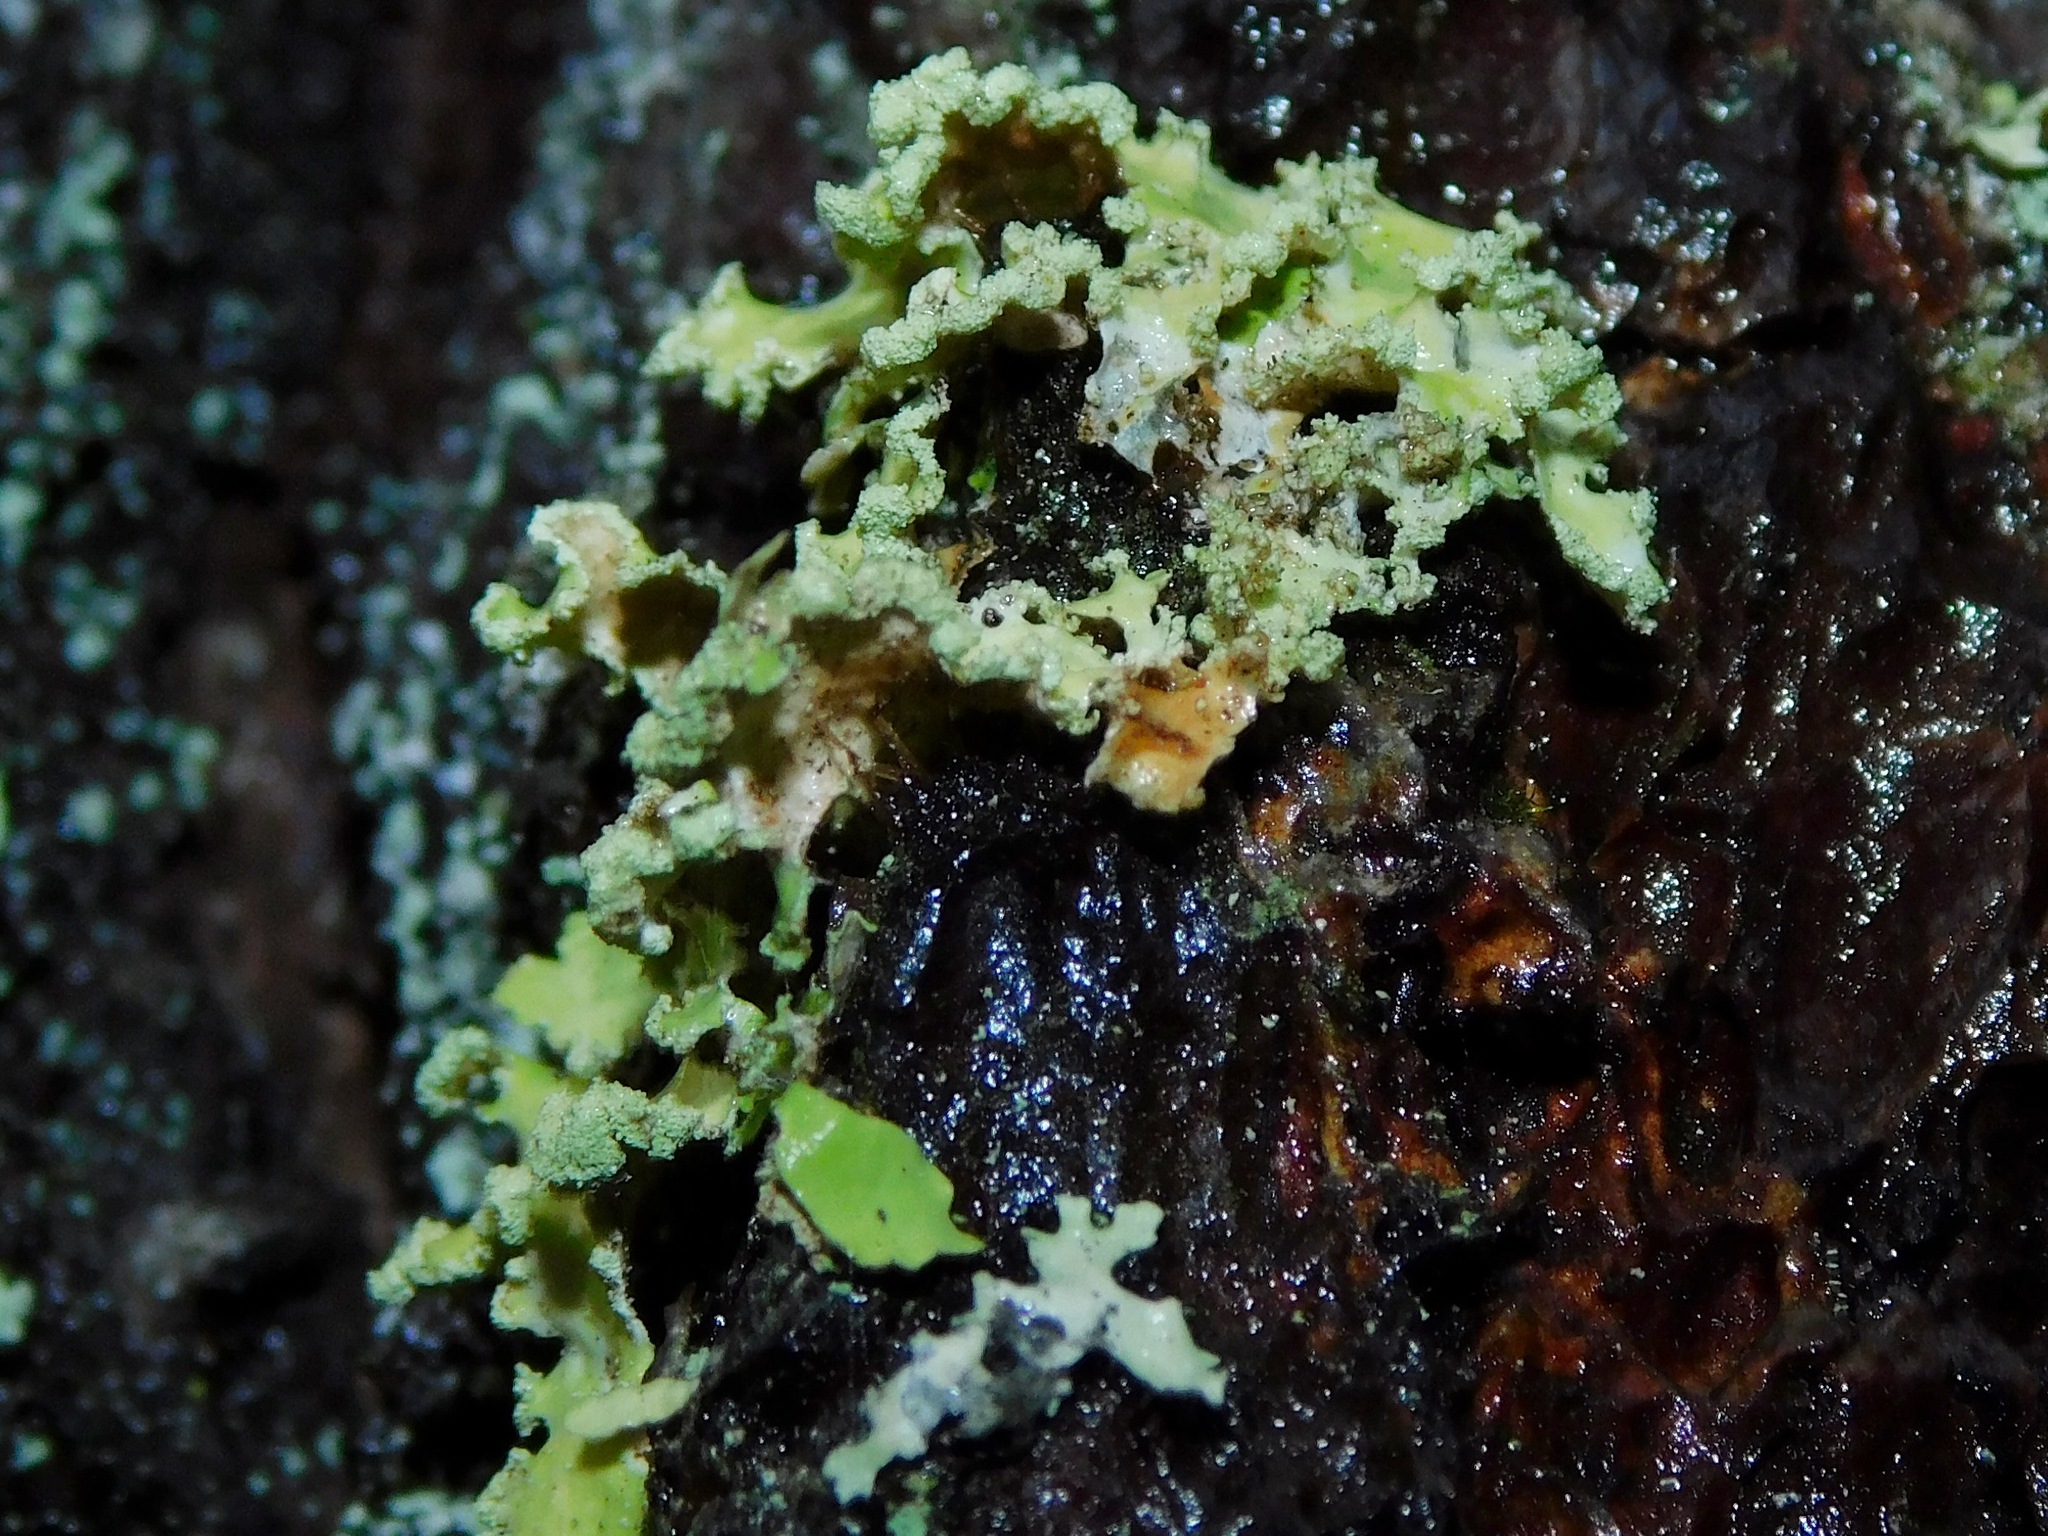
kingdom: Fungi
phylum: Ascomycota
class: Lecanoromycetes
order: Lecanorales
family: Parmeliaceae
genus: Usnocetraria
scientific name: Usnocetraria oakesiana
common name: Yellow ribbon lichen
